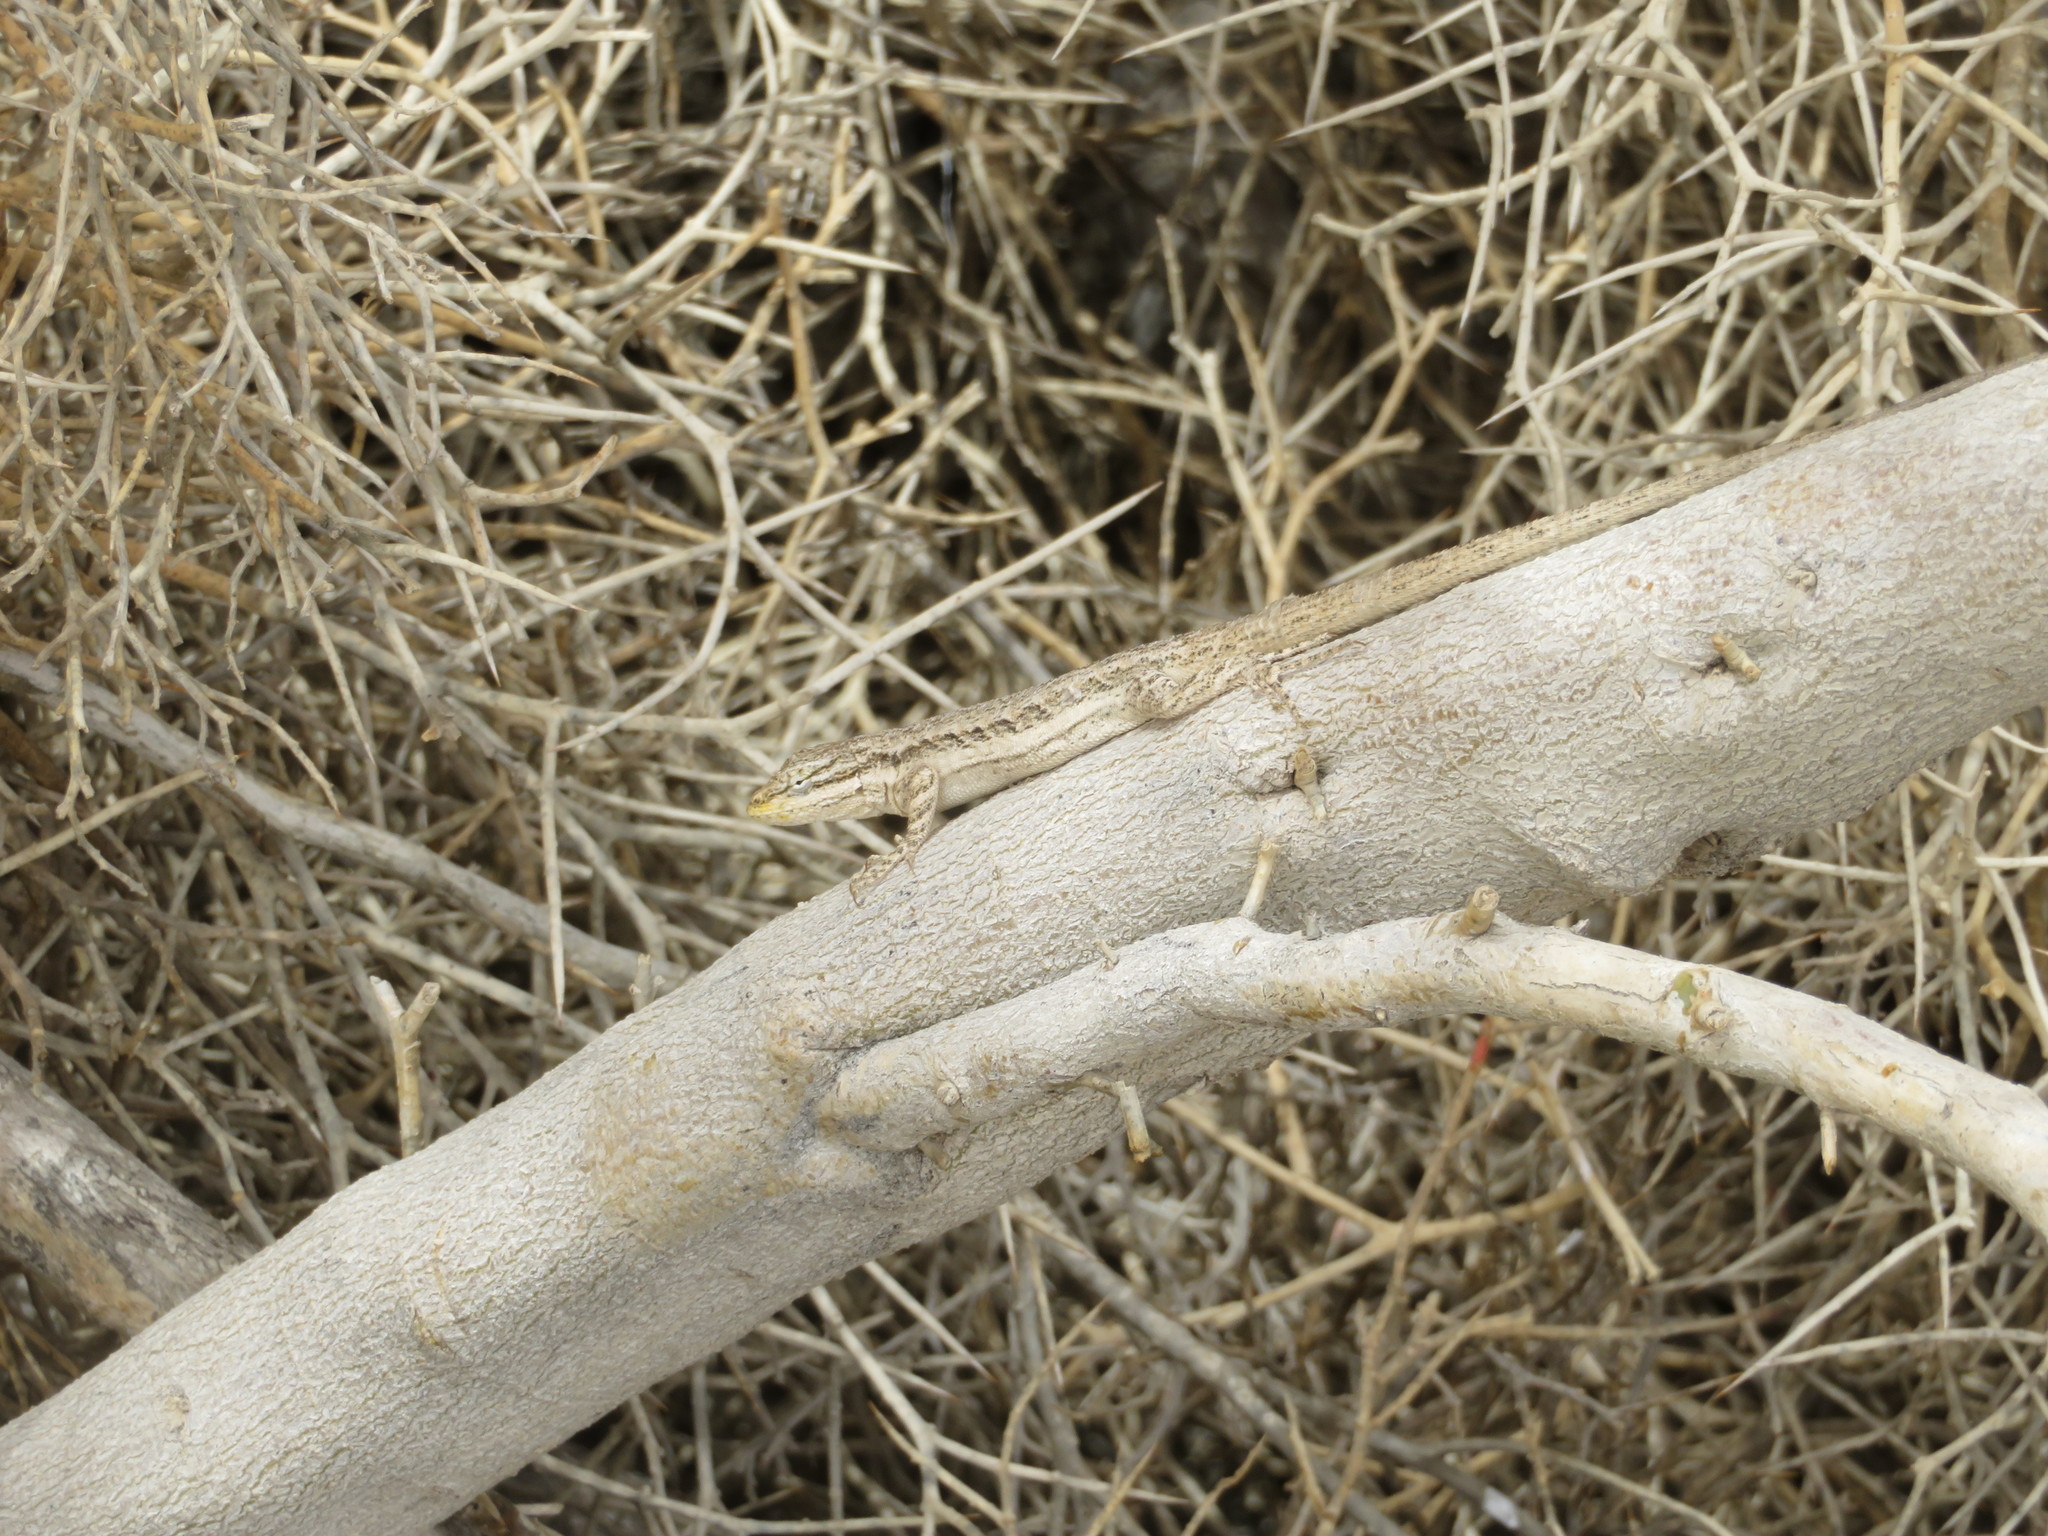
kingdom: Animalia
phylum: Chordata
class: Squamata
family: Phrynosomatidae
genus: Urosaurus
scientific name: Urosaurus graciosus
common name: Long-tailed brush lizard
